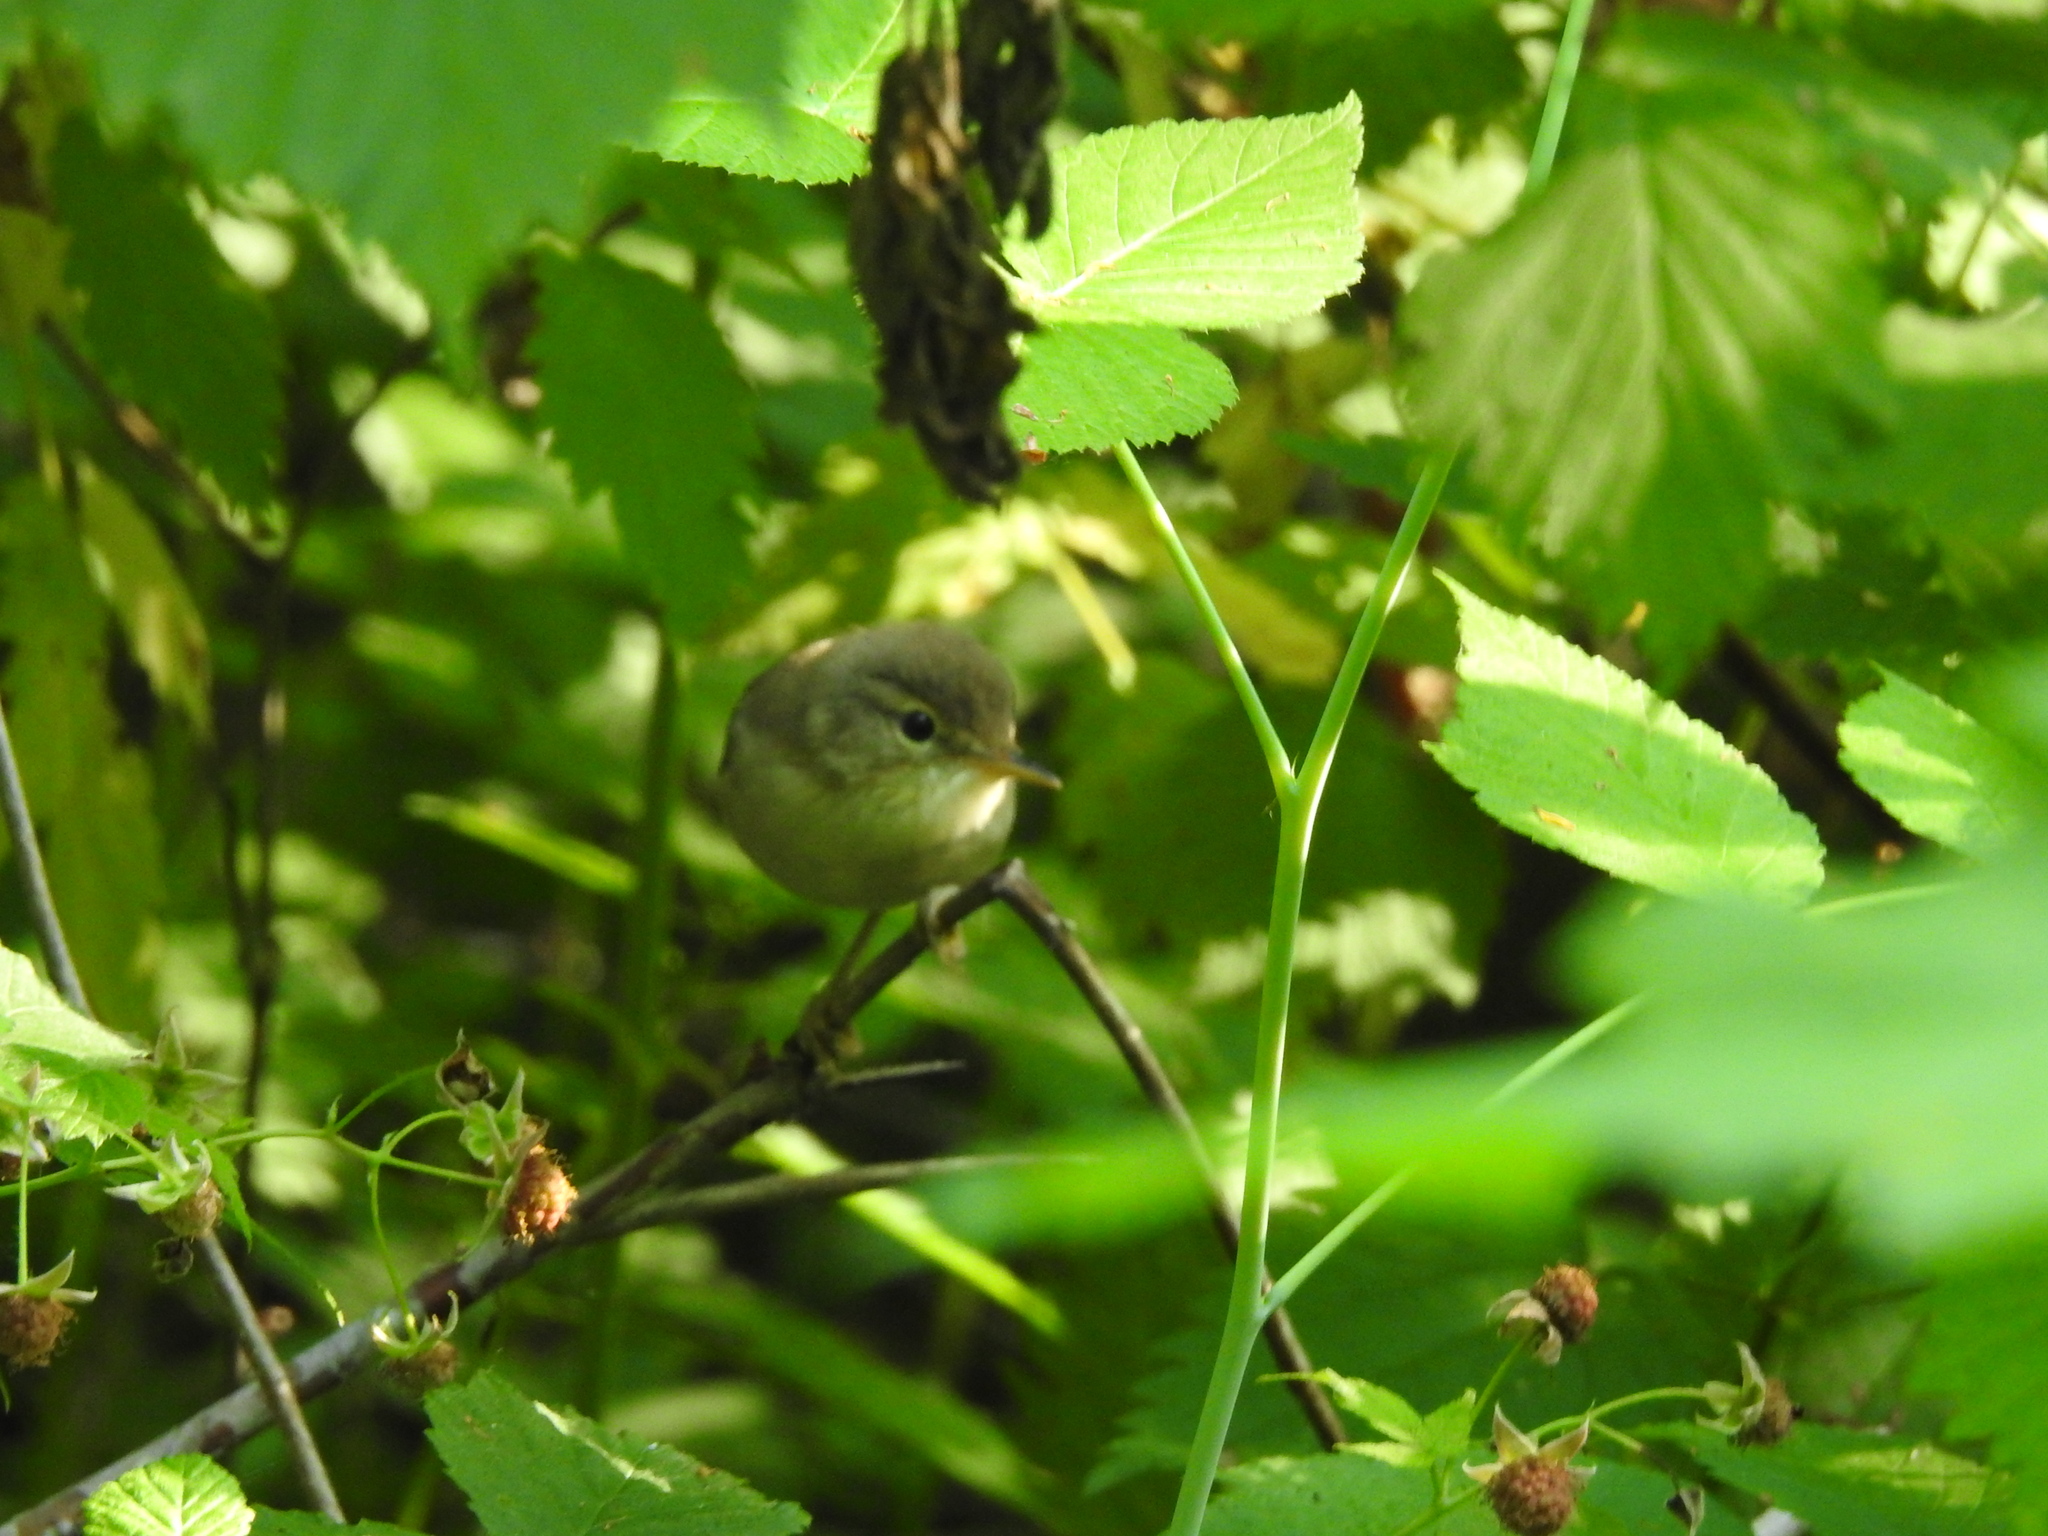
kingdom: Animalia
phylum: Chordata
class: Aves
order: Passeriformes
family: Acrocephalidae
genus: Acrocephalus
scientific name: Acrocephalus dumetorum
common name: Blyth's reed warbler
